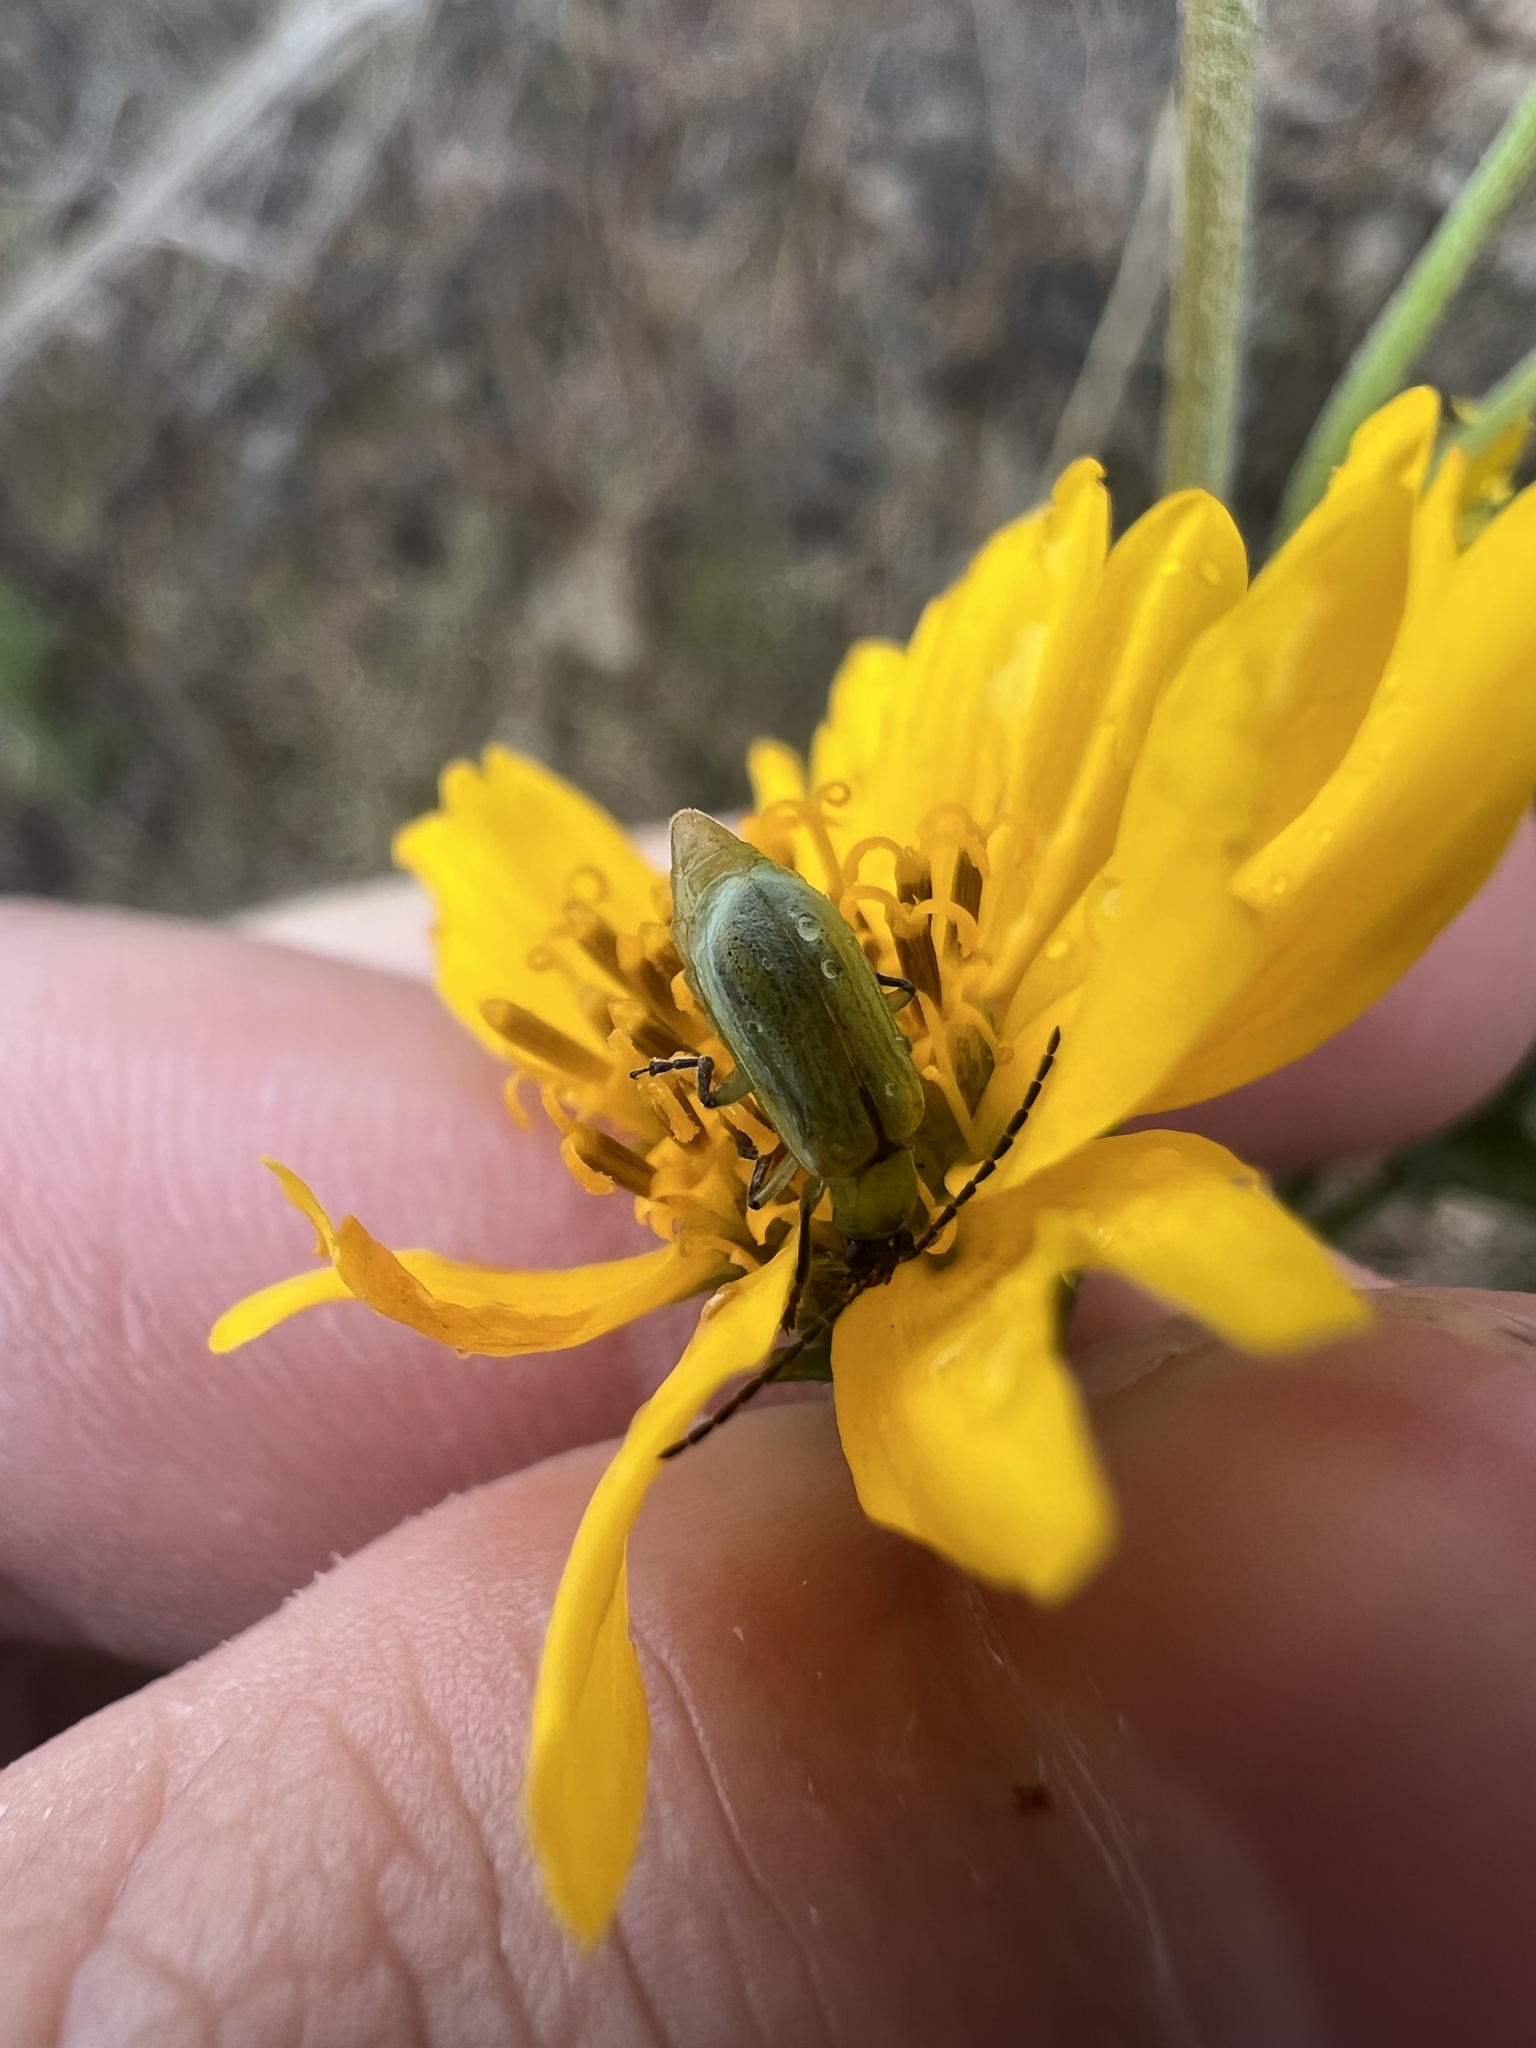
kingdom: Animalia
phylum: Arthropoda
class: Insecta
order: Coleoptera
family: Chrysomelidae
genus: Diabrotica
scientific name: Diabrotica longicornis
